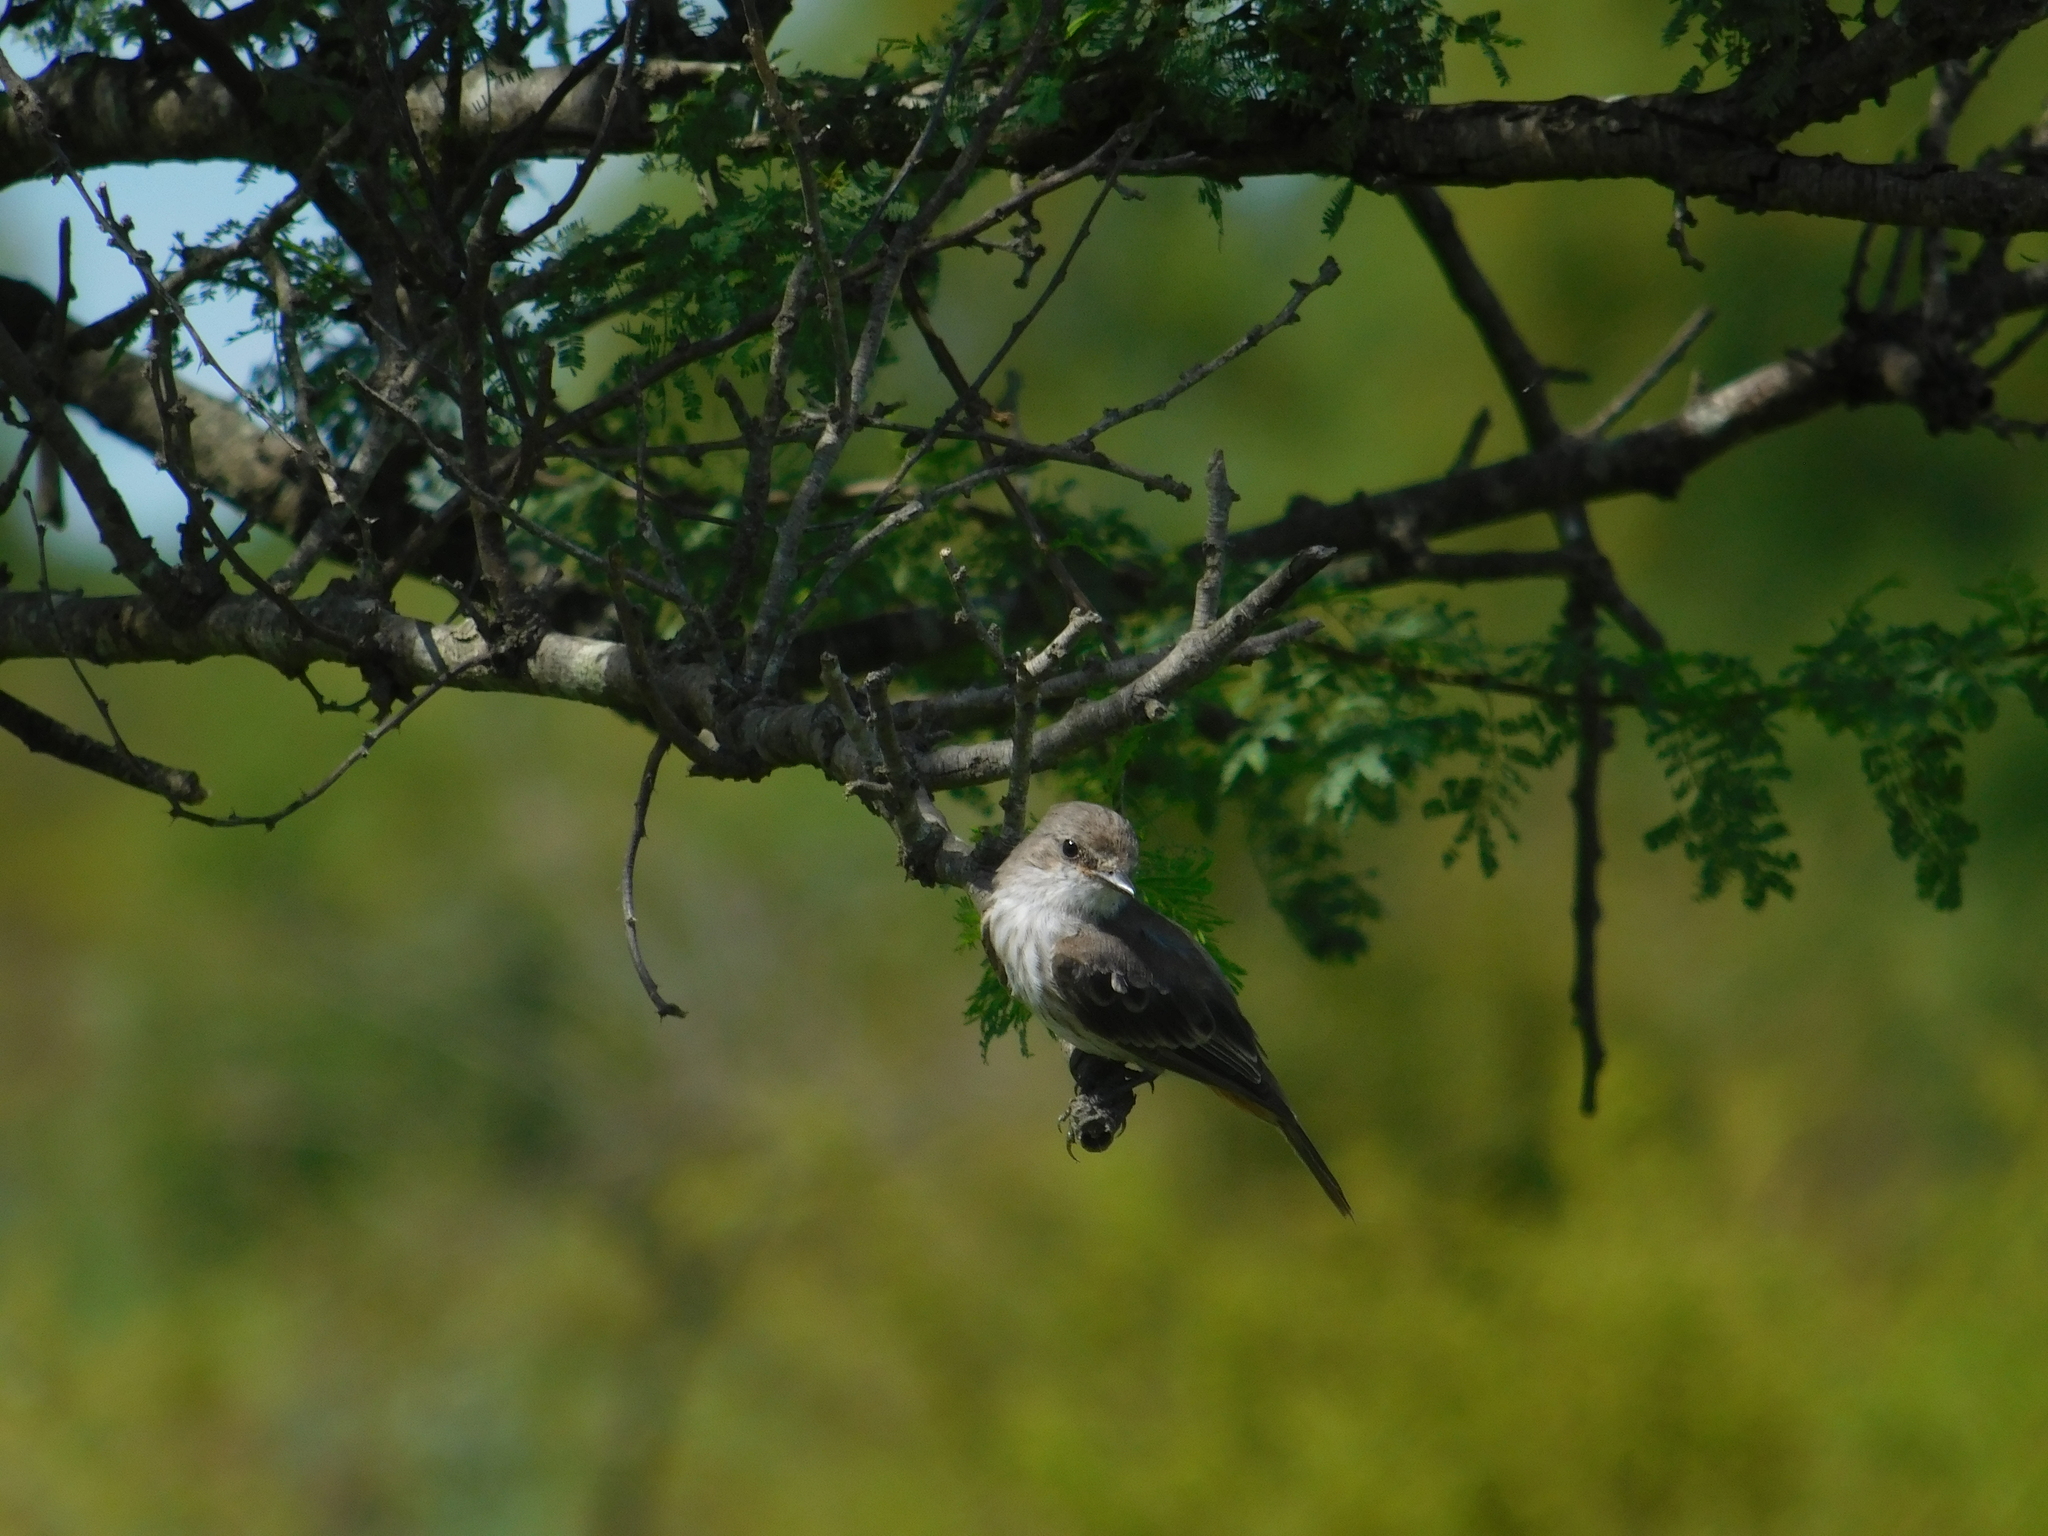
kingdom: Animalia
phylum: Chordata
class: Aves
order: Passeriformes
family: Tyrannidae
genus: Pyrocephalus
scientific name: Pyrocephalus rubinus
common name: Vermilion flycatcher
